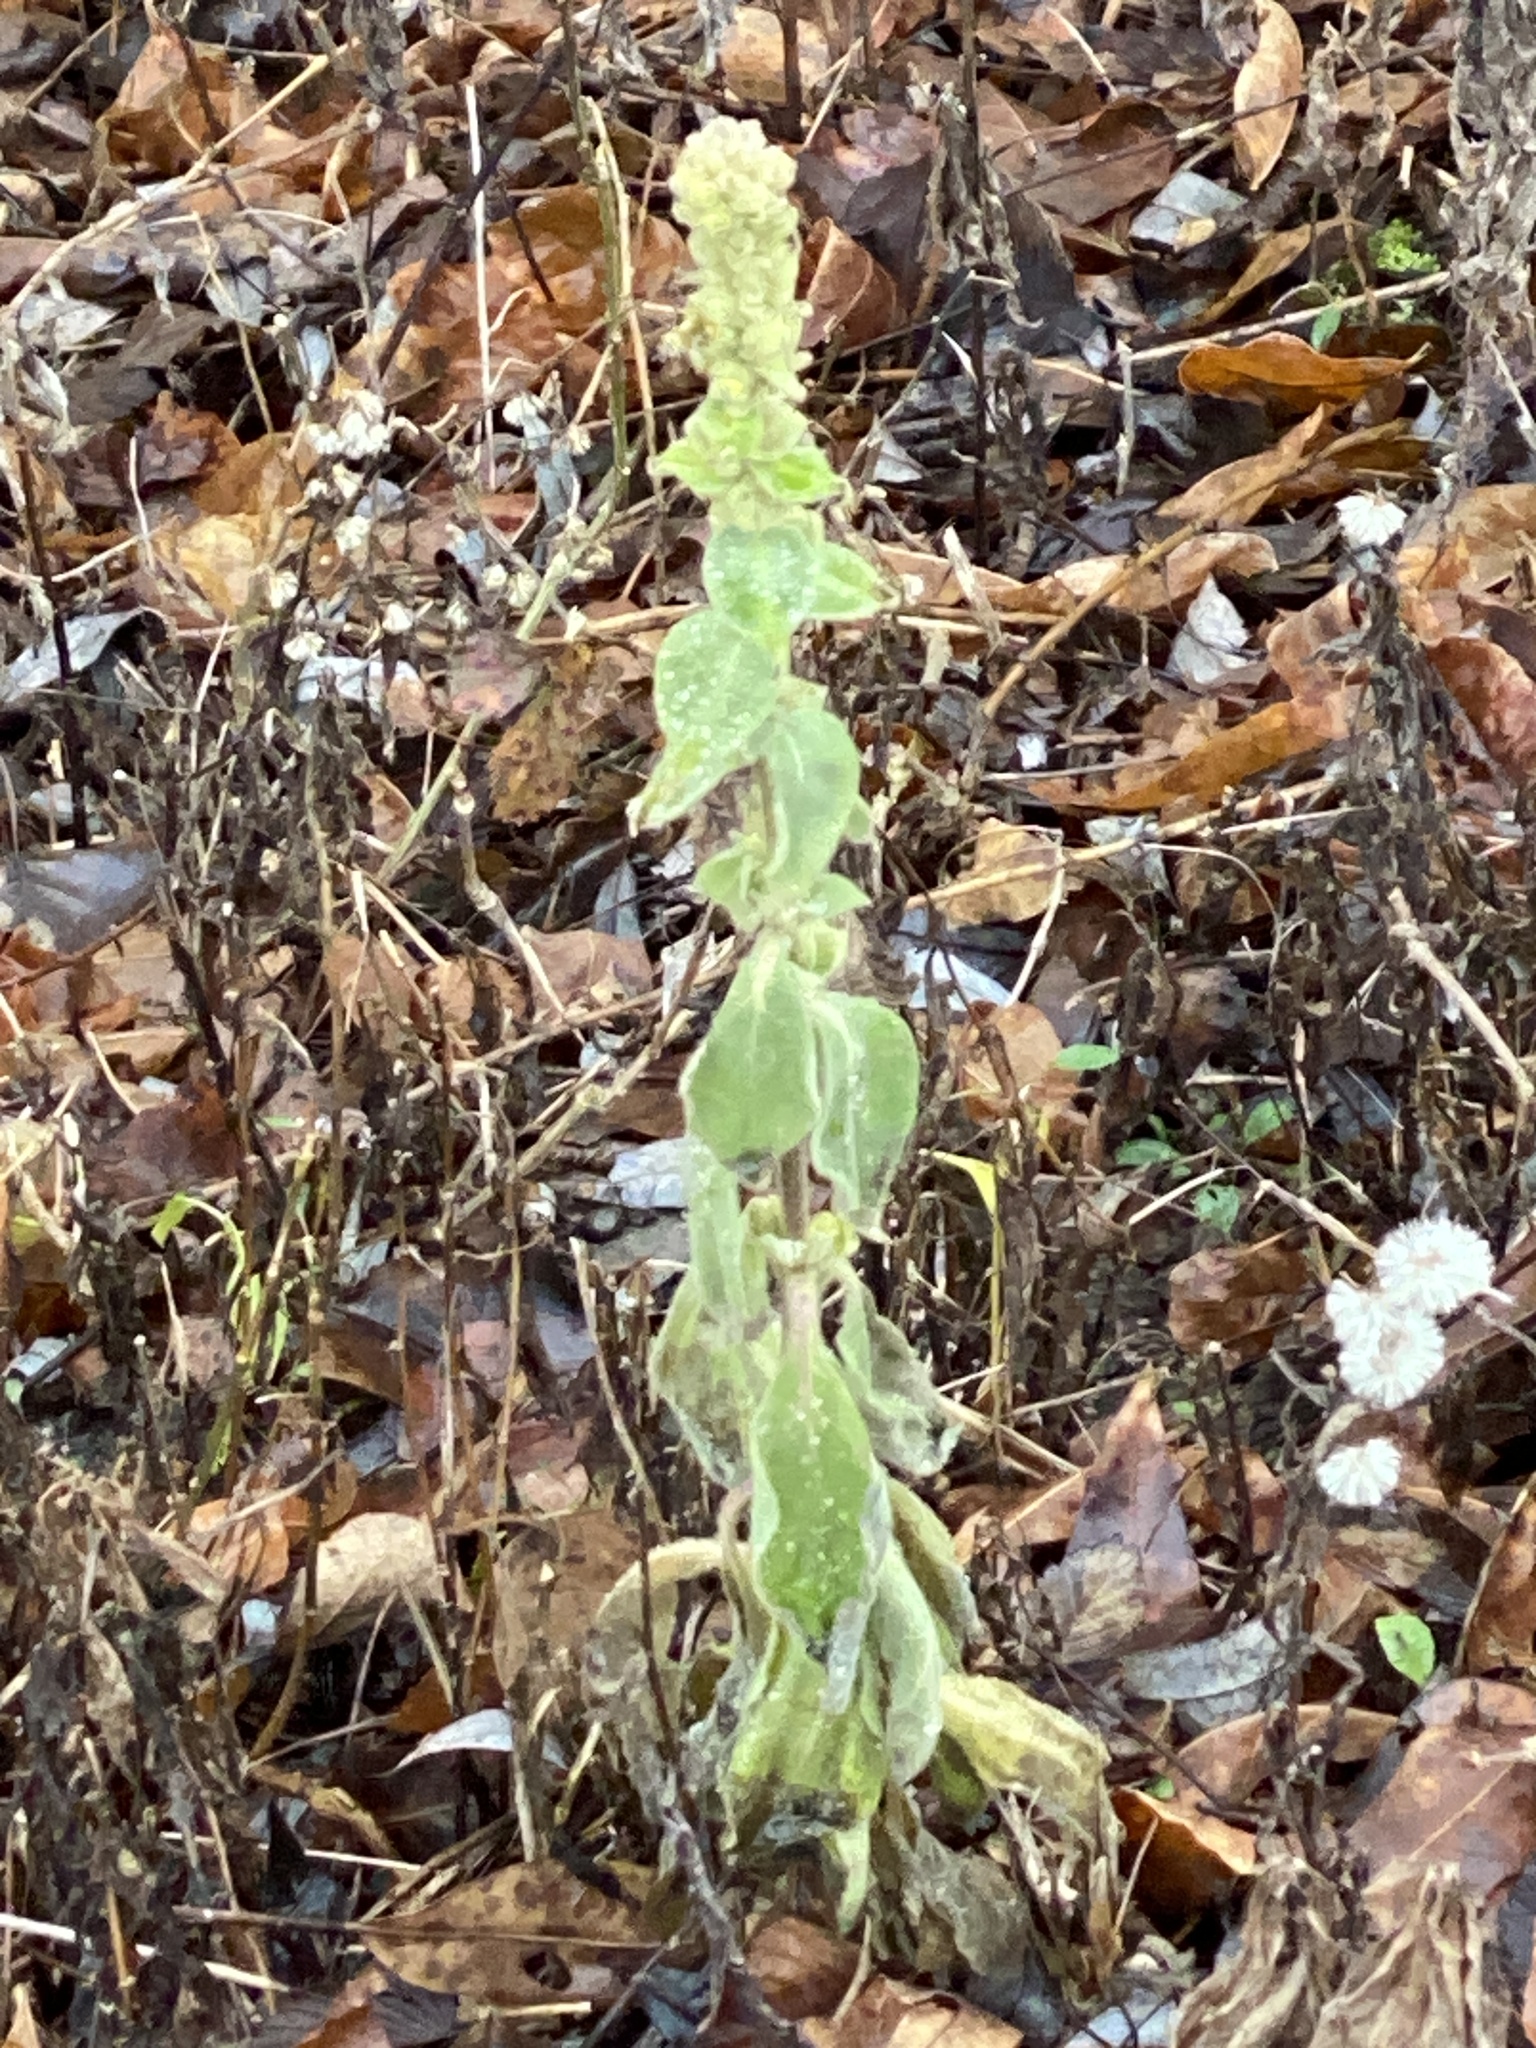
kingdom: Plantae
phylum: Tracheophyta
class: Magnoliopsida
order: Lamiales
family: Scrophulariaceae
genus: Verbascum
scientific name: Verbascum thapsus
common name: Common mullein
